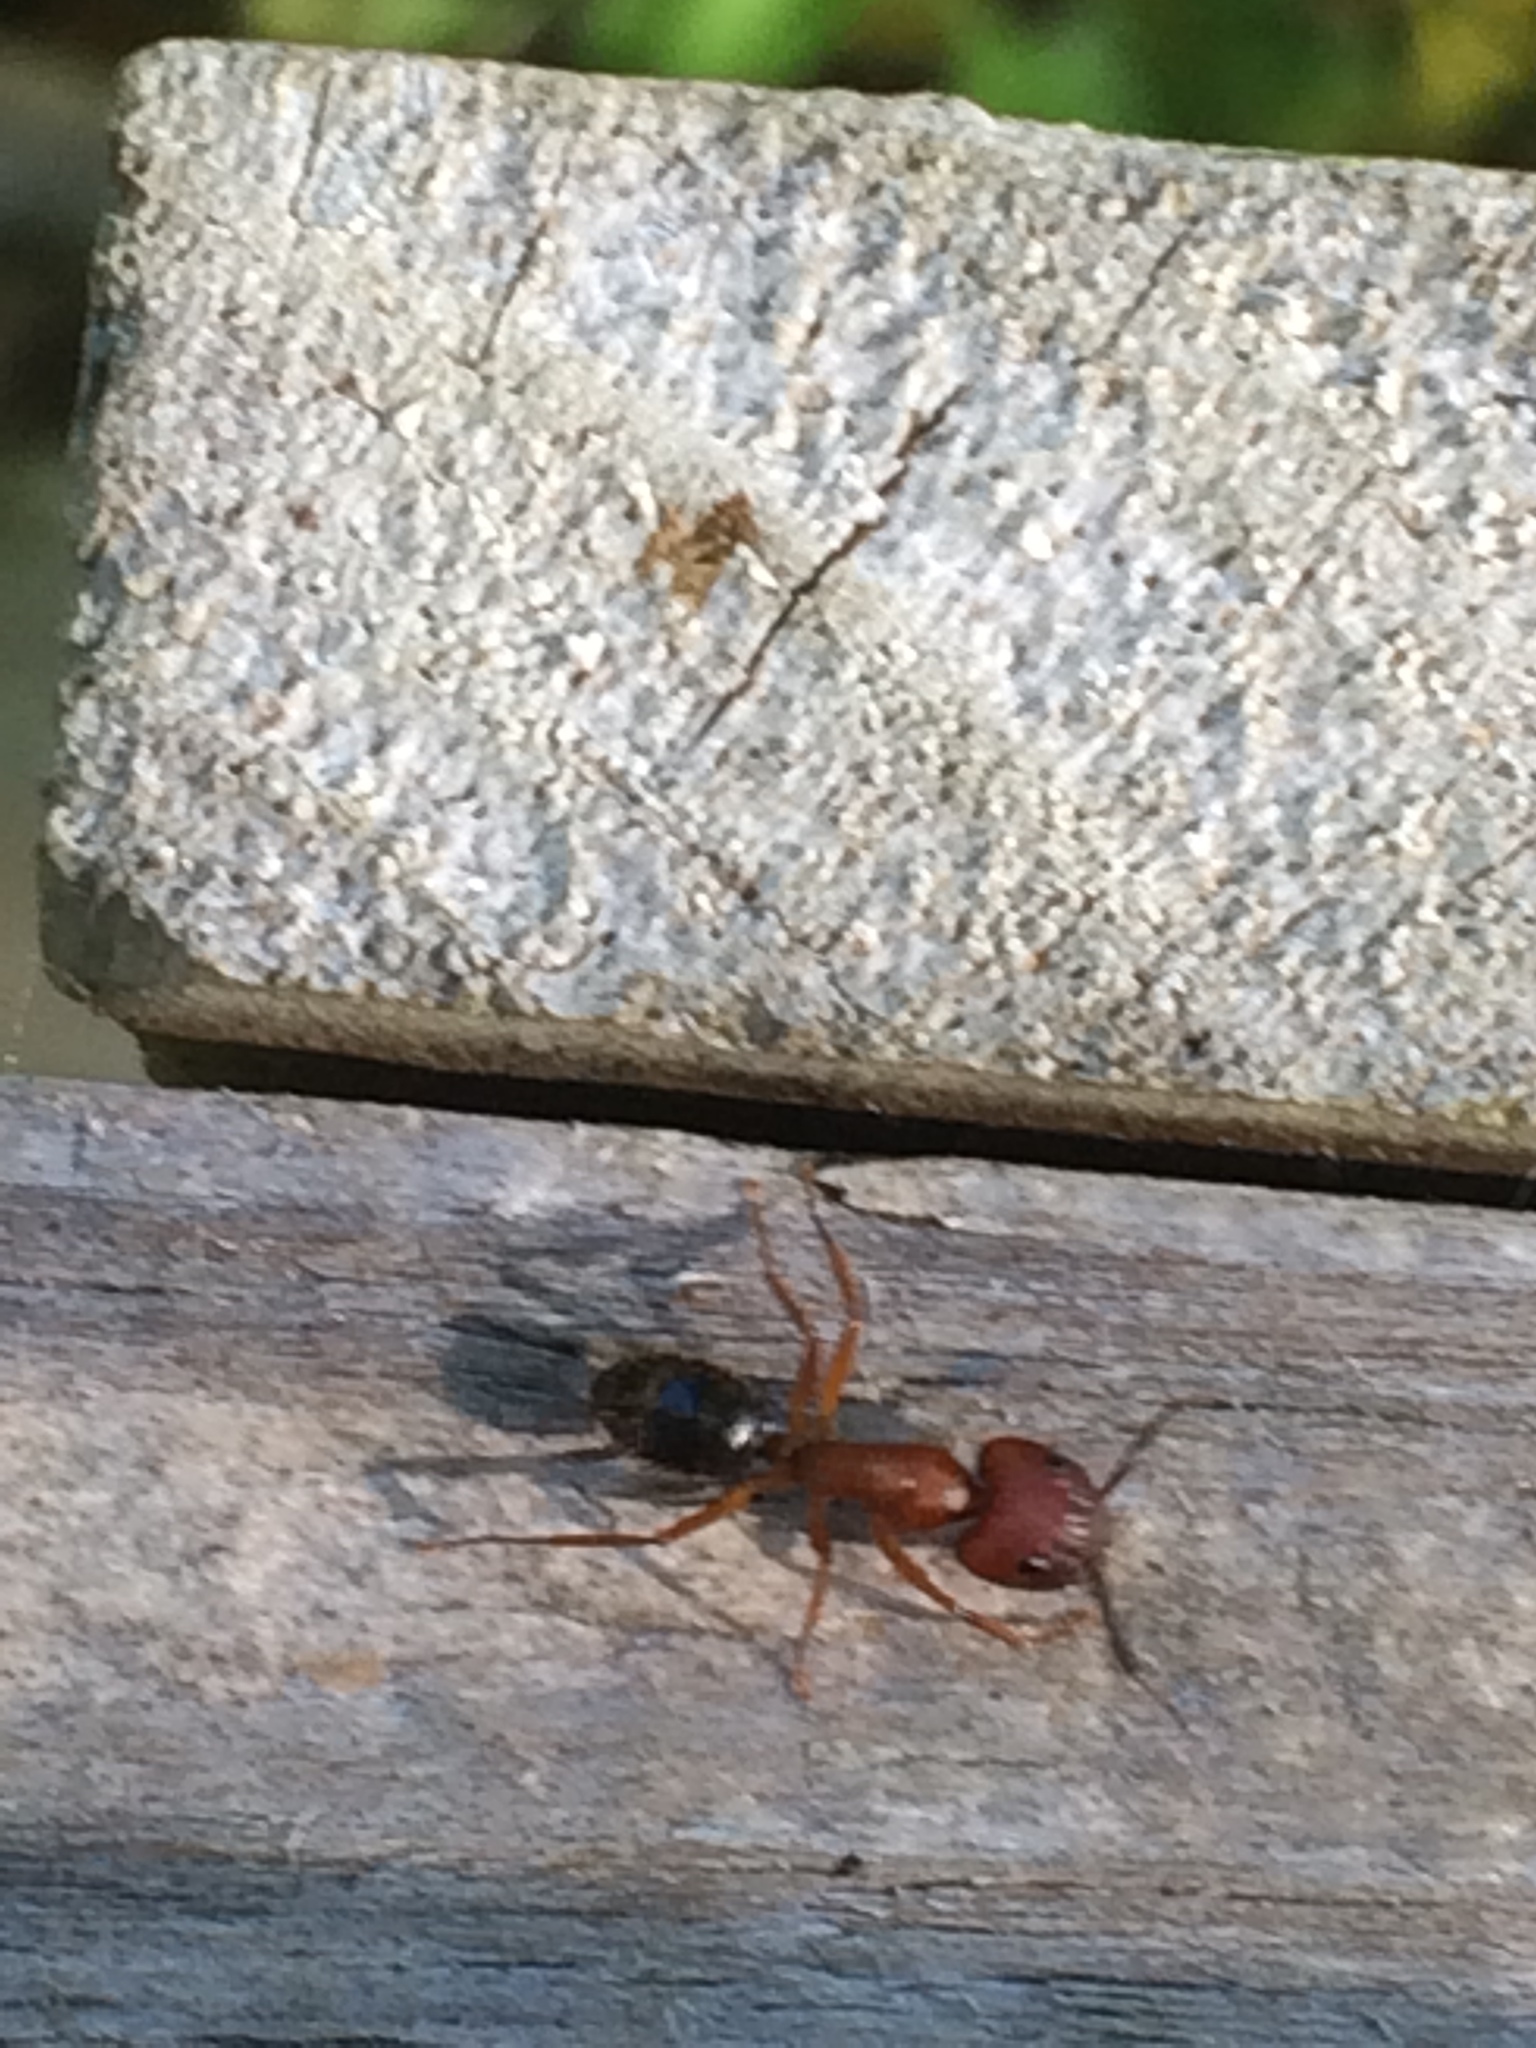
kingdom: Animalia
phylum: Arthropoda
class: Insecta
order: Hymenoptera
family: Formicidae
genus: Camponotus
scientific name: Camponotus floridanus
